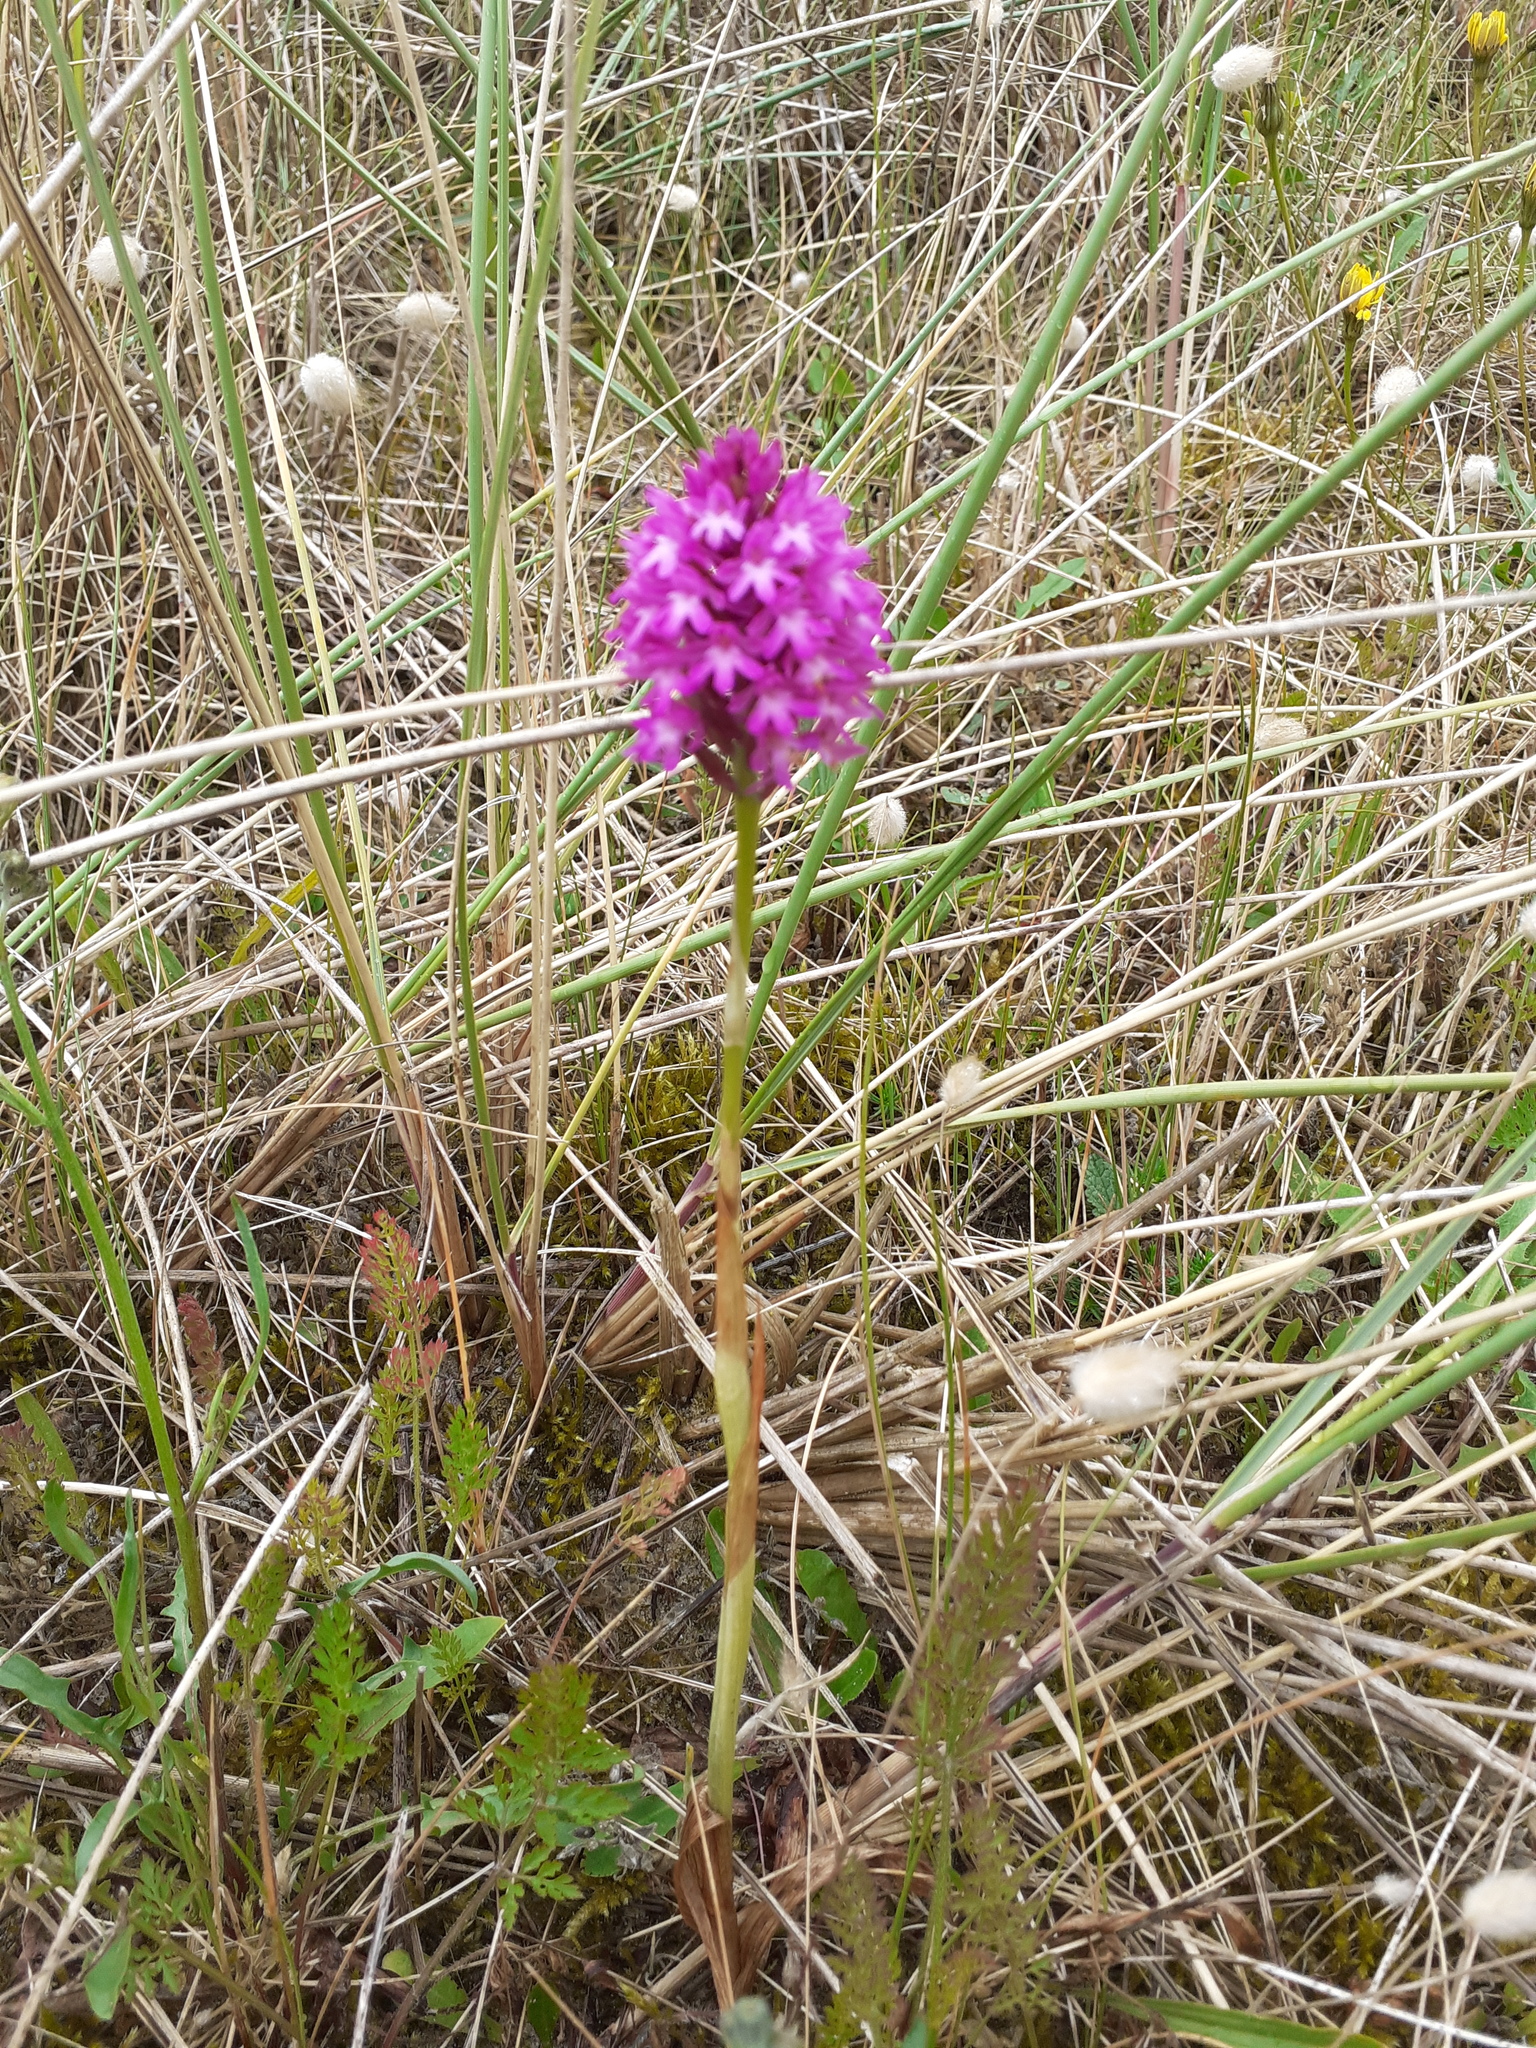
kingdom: Plantae
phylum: Tracheophyta
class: Liliopsida
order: Asparagales
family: Orchidaceae
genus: Anacamptis
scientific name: Anacamptis pyramidalis
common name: Pyramidal orchid
